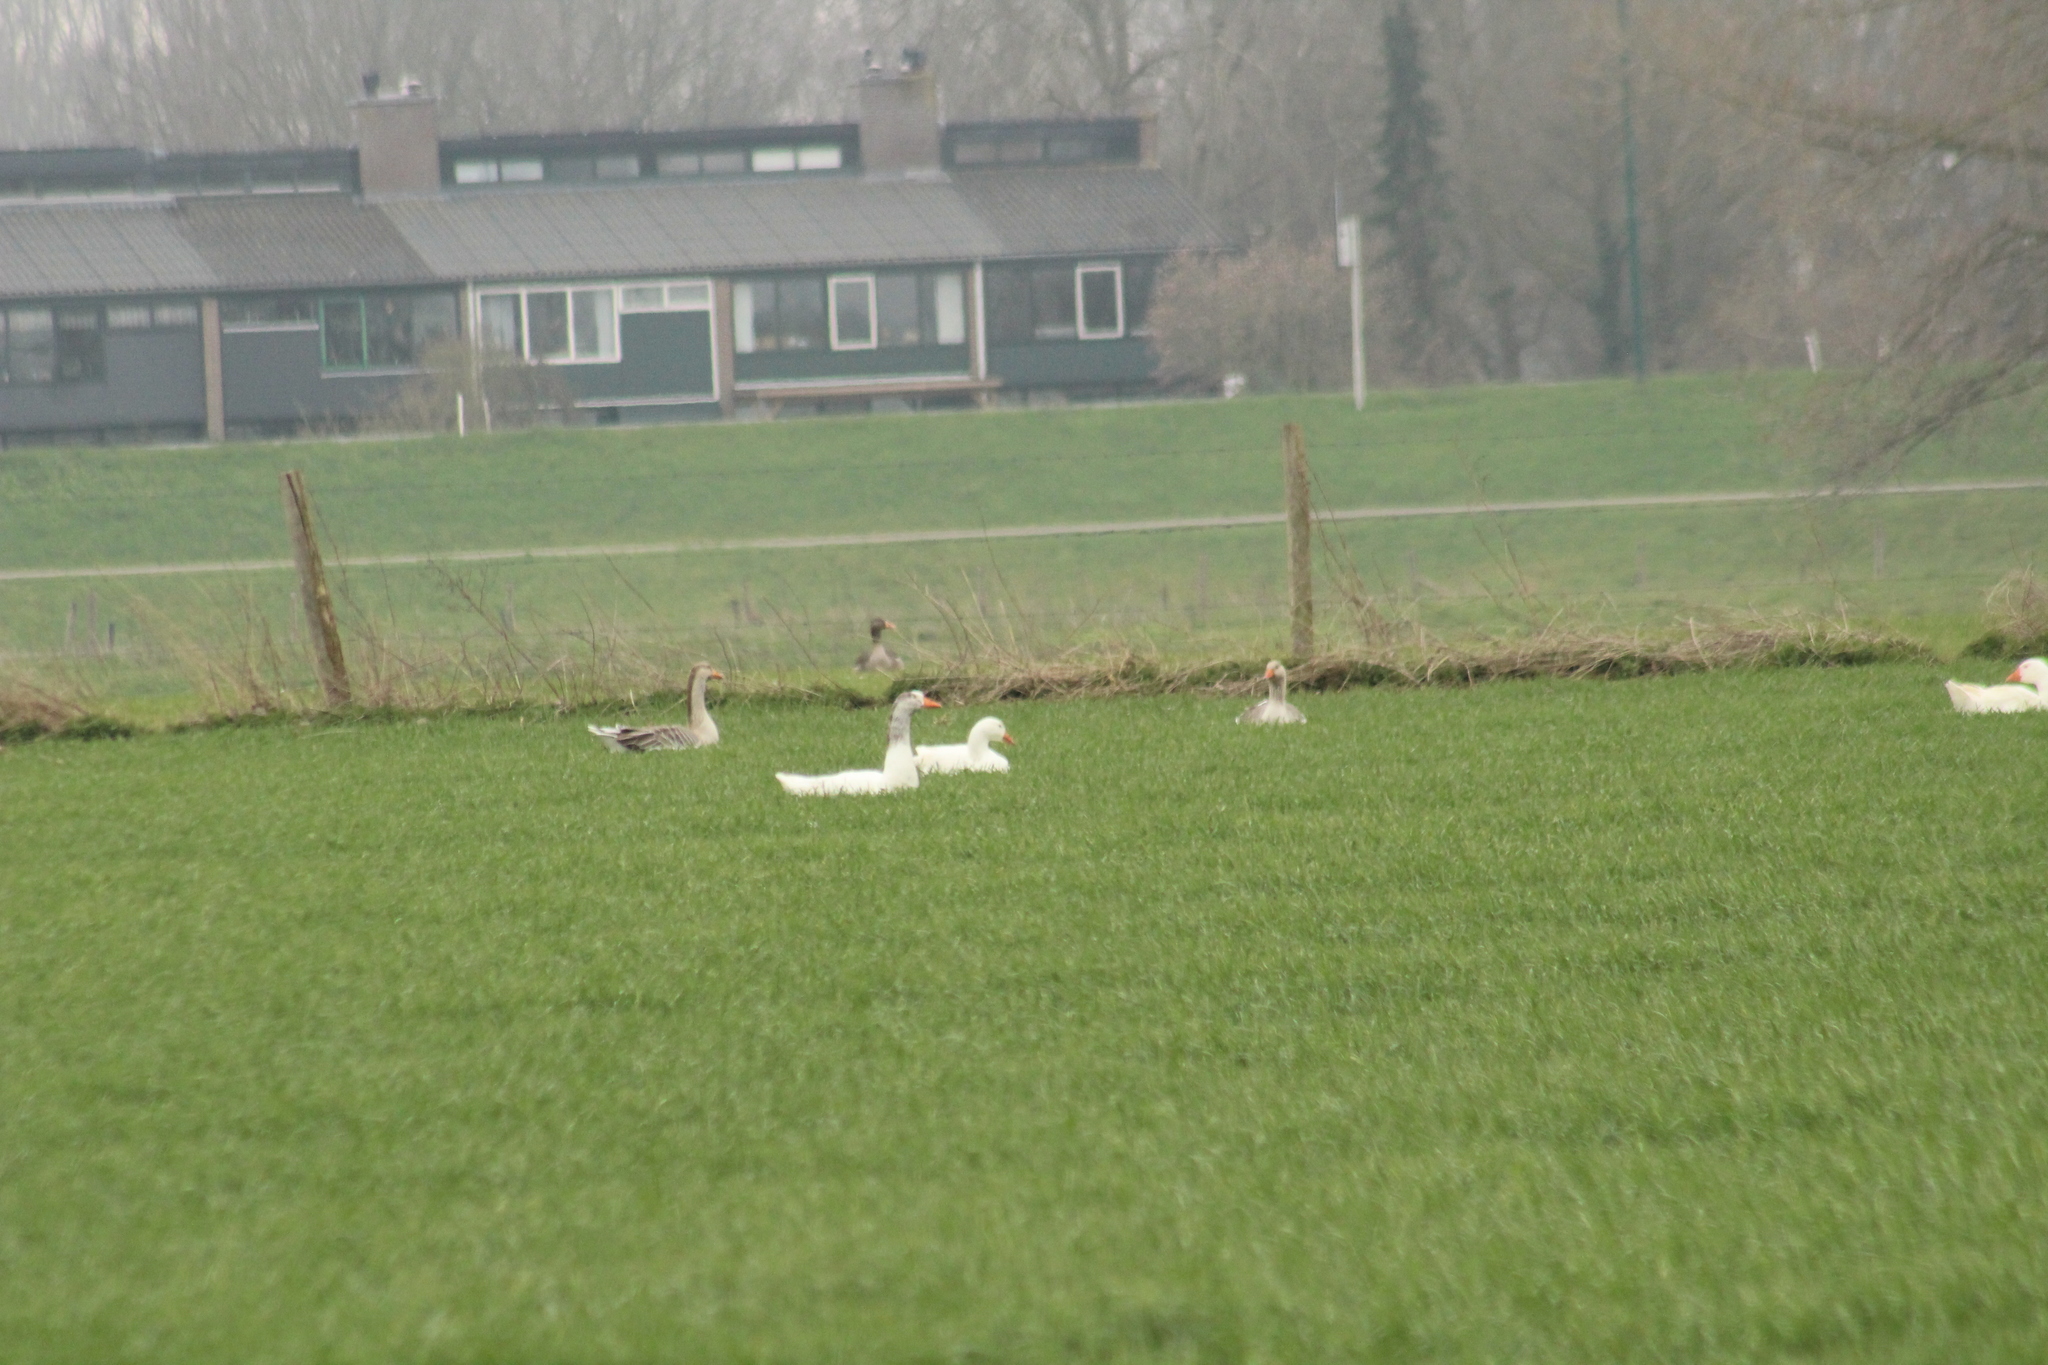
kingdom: Animalia
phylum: Chordata
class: Aves
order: Anseriformes
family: Anatidae
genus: Anser
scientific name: Anser anser
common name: Greylag goose
